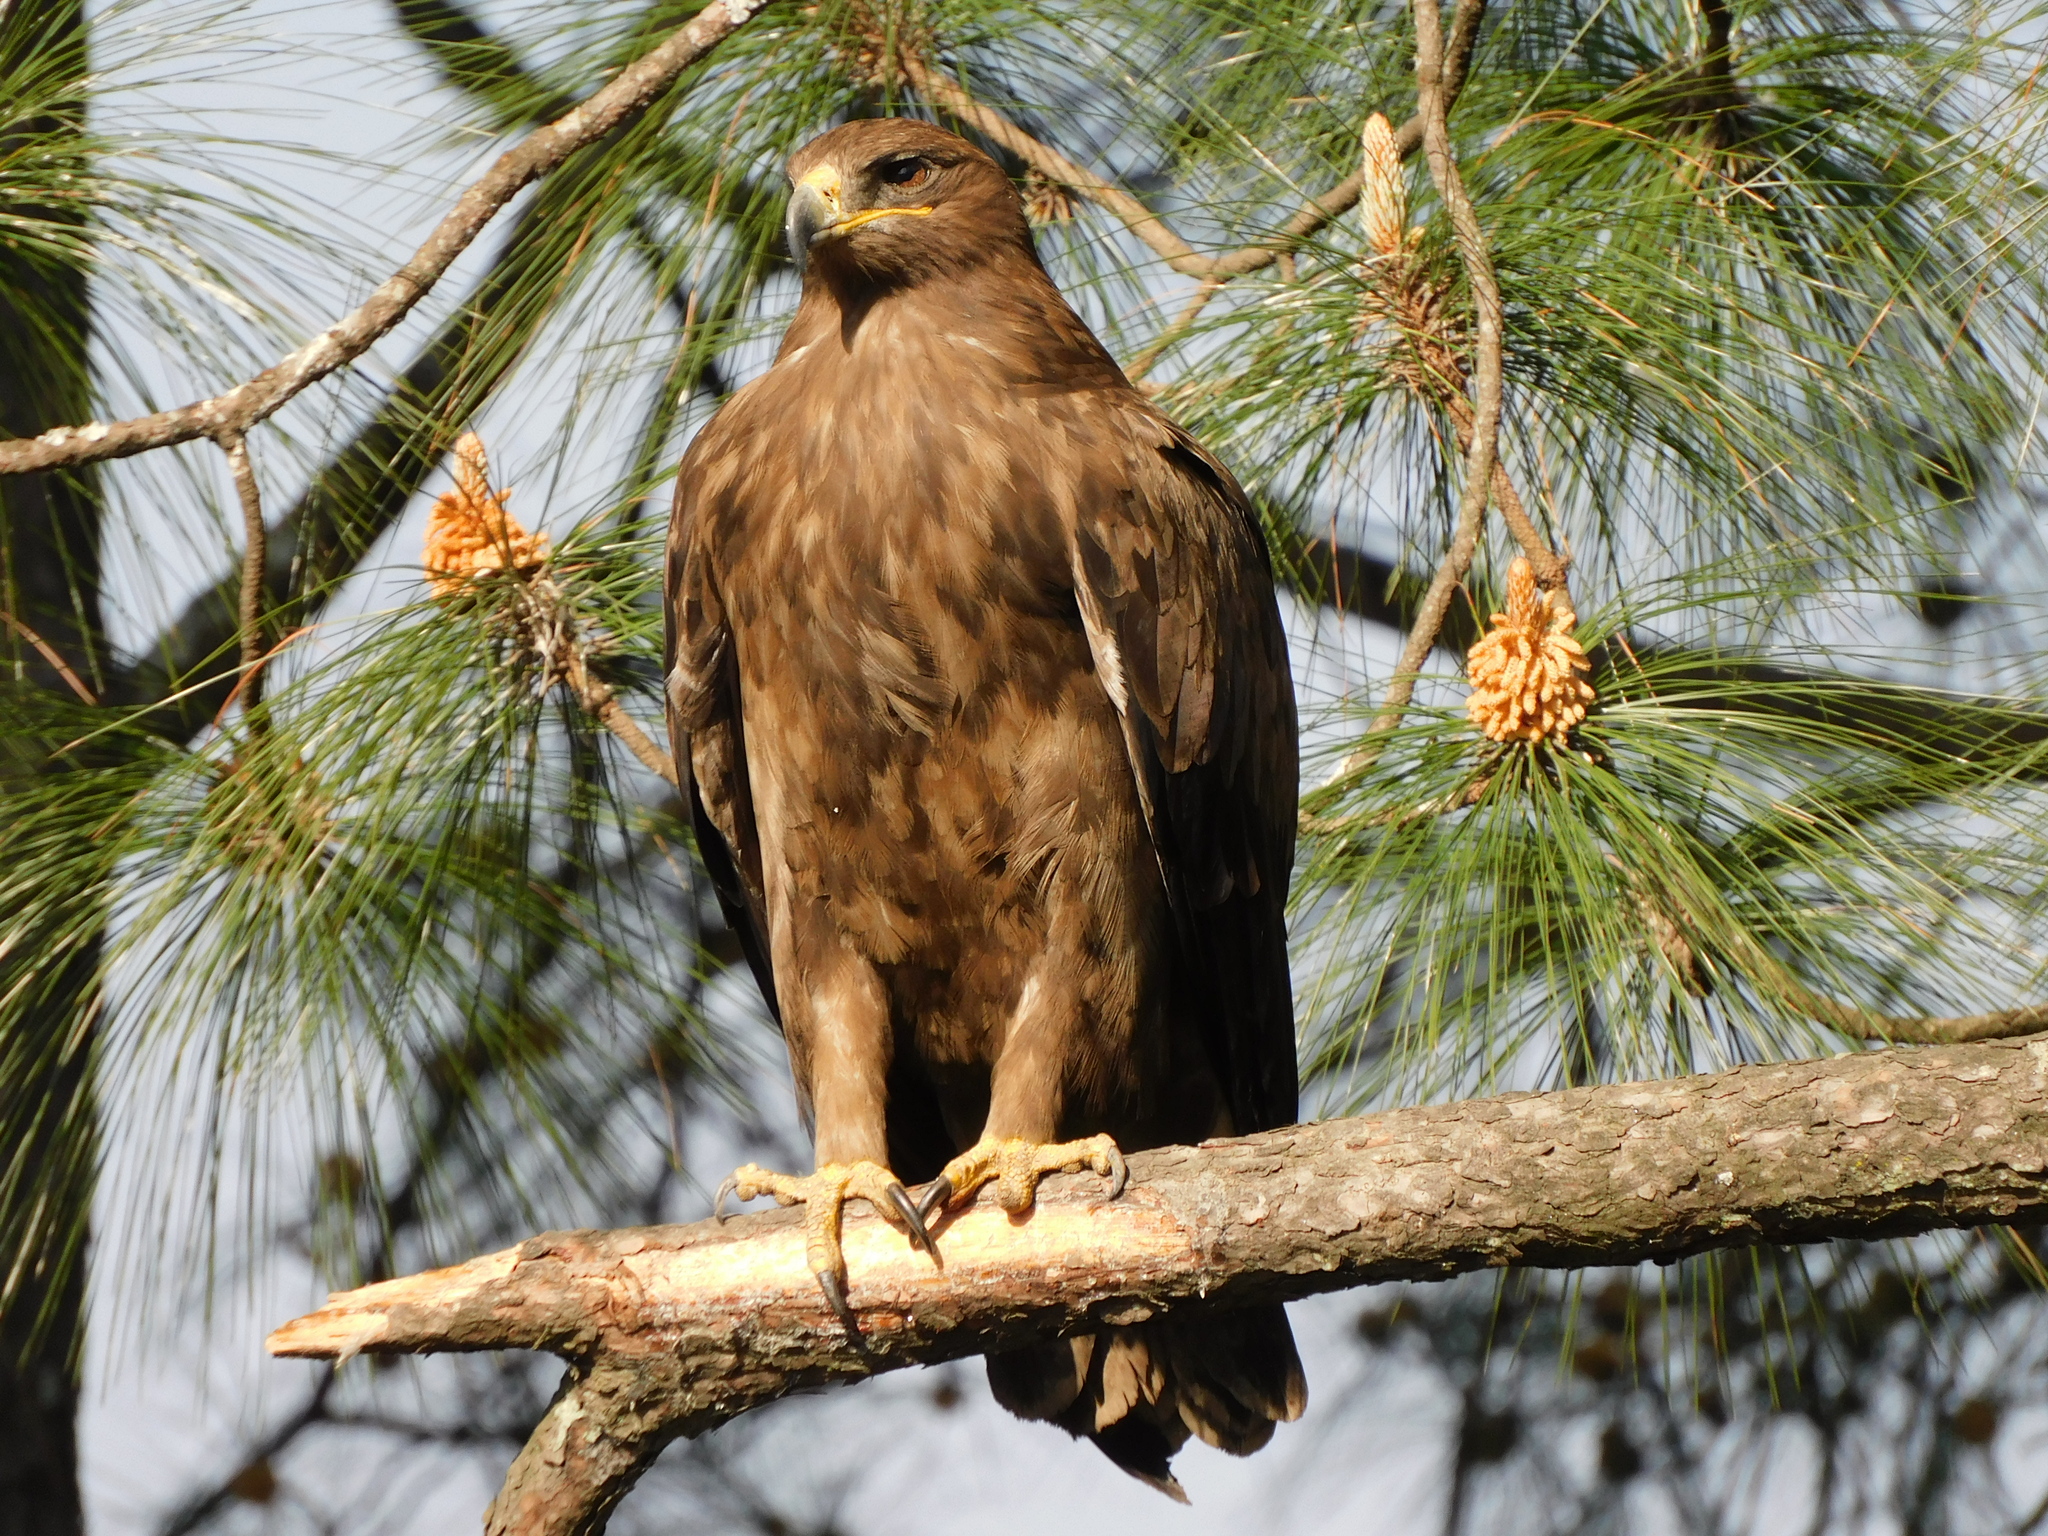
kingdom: Animalia
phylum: Chordata
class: Aves
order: Accipitriformes
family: Accipitridae
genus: Aquila
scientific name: Aquila nipalensis
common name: Steppe eagle
